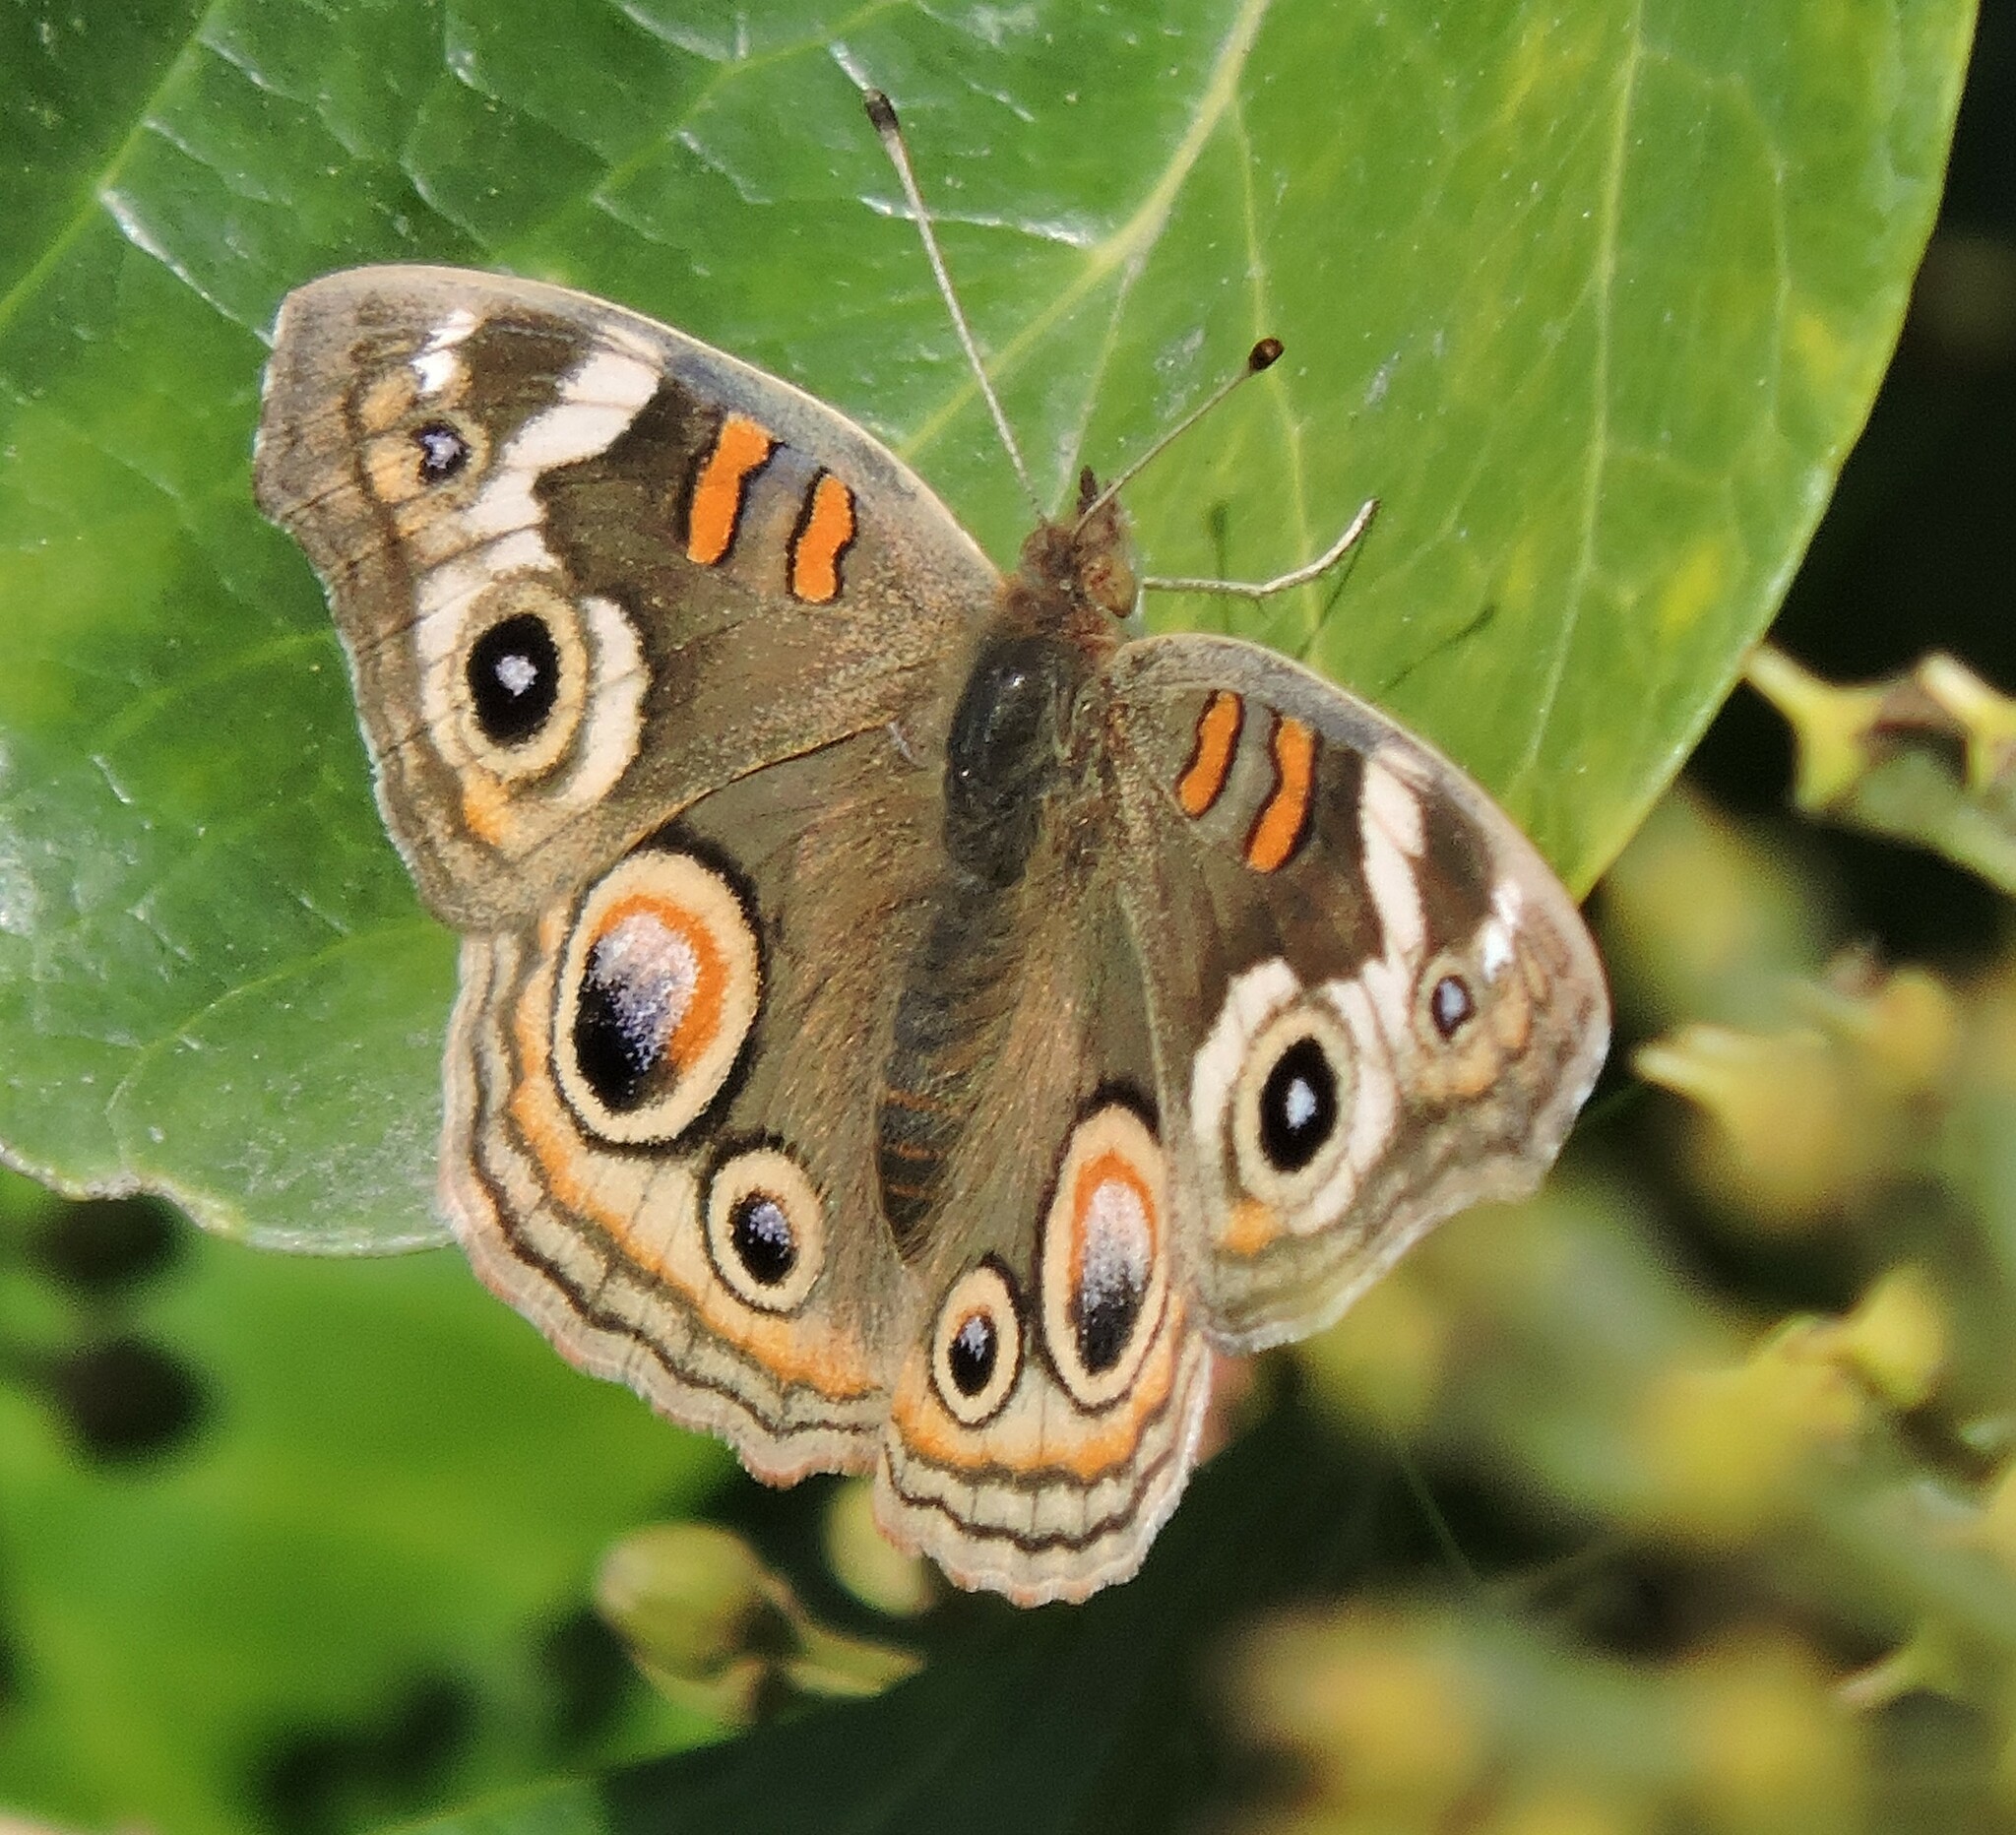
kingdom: Animalia
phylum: Arthropoda
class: Insecta
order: Lepidoptera
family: Nymphalidae
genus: Junonia
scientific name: Junonia grisea
